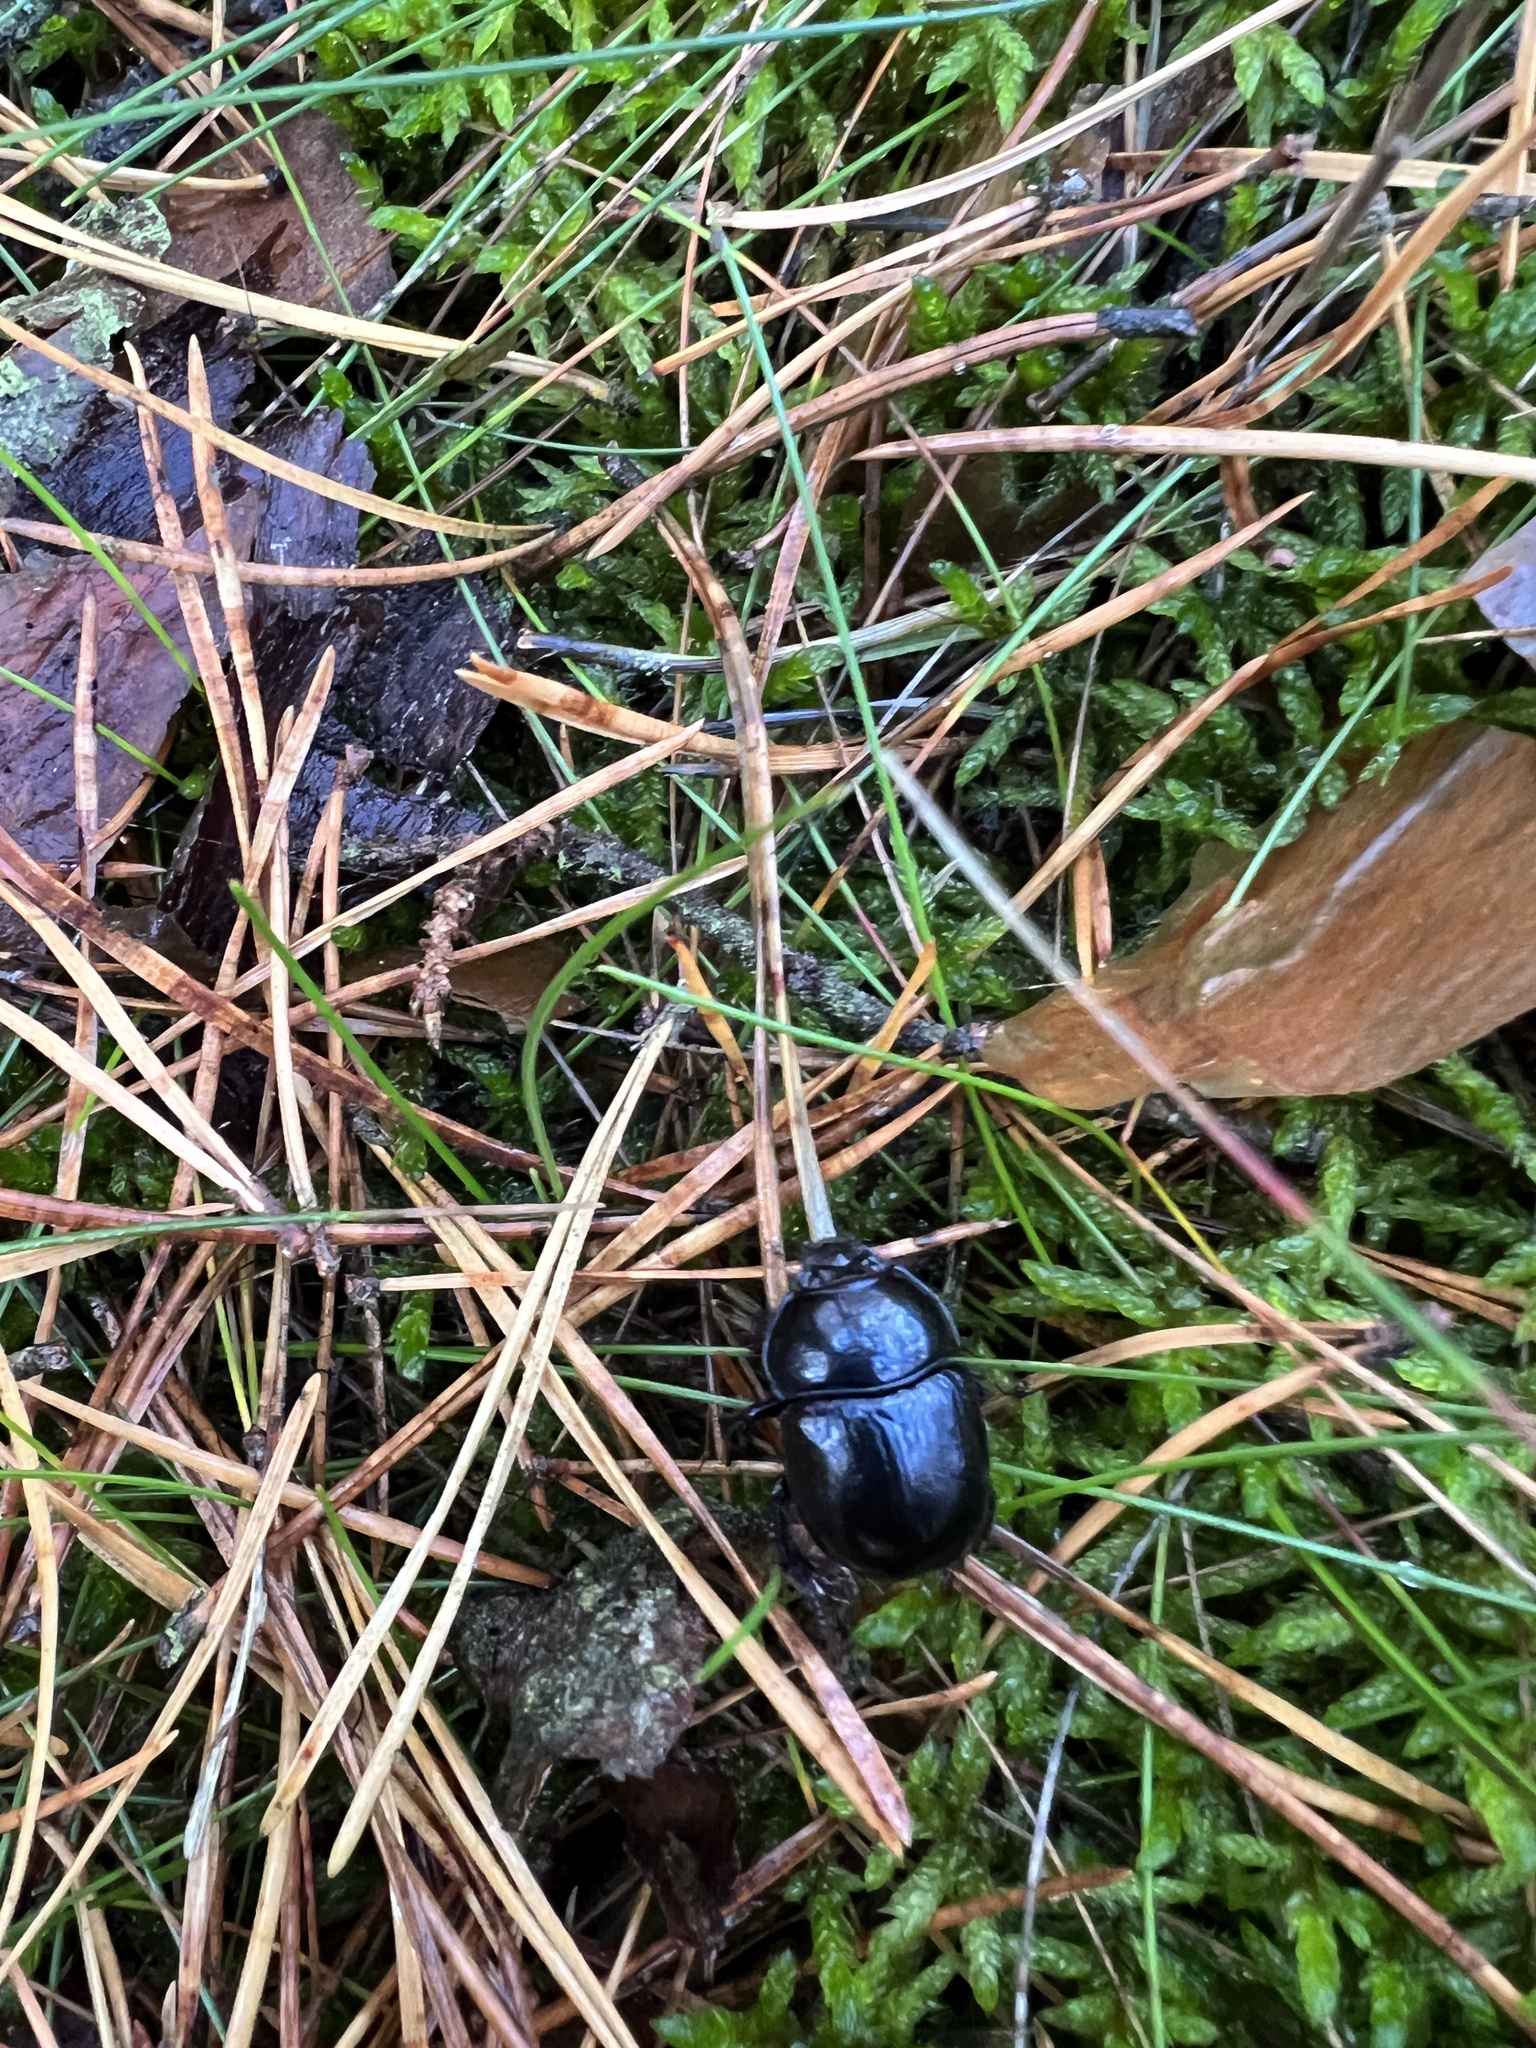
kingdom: Animalia
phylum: Arthropoda
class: Insecta
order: Coleoptera
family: Geotrupidae
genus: Anoplotrupes
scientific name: Anoplotrupes stercorosus
